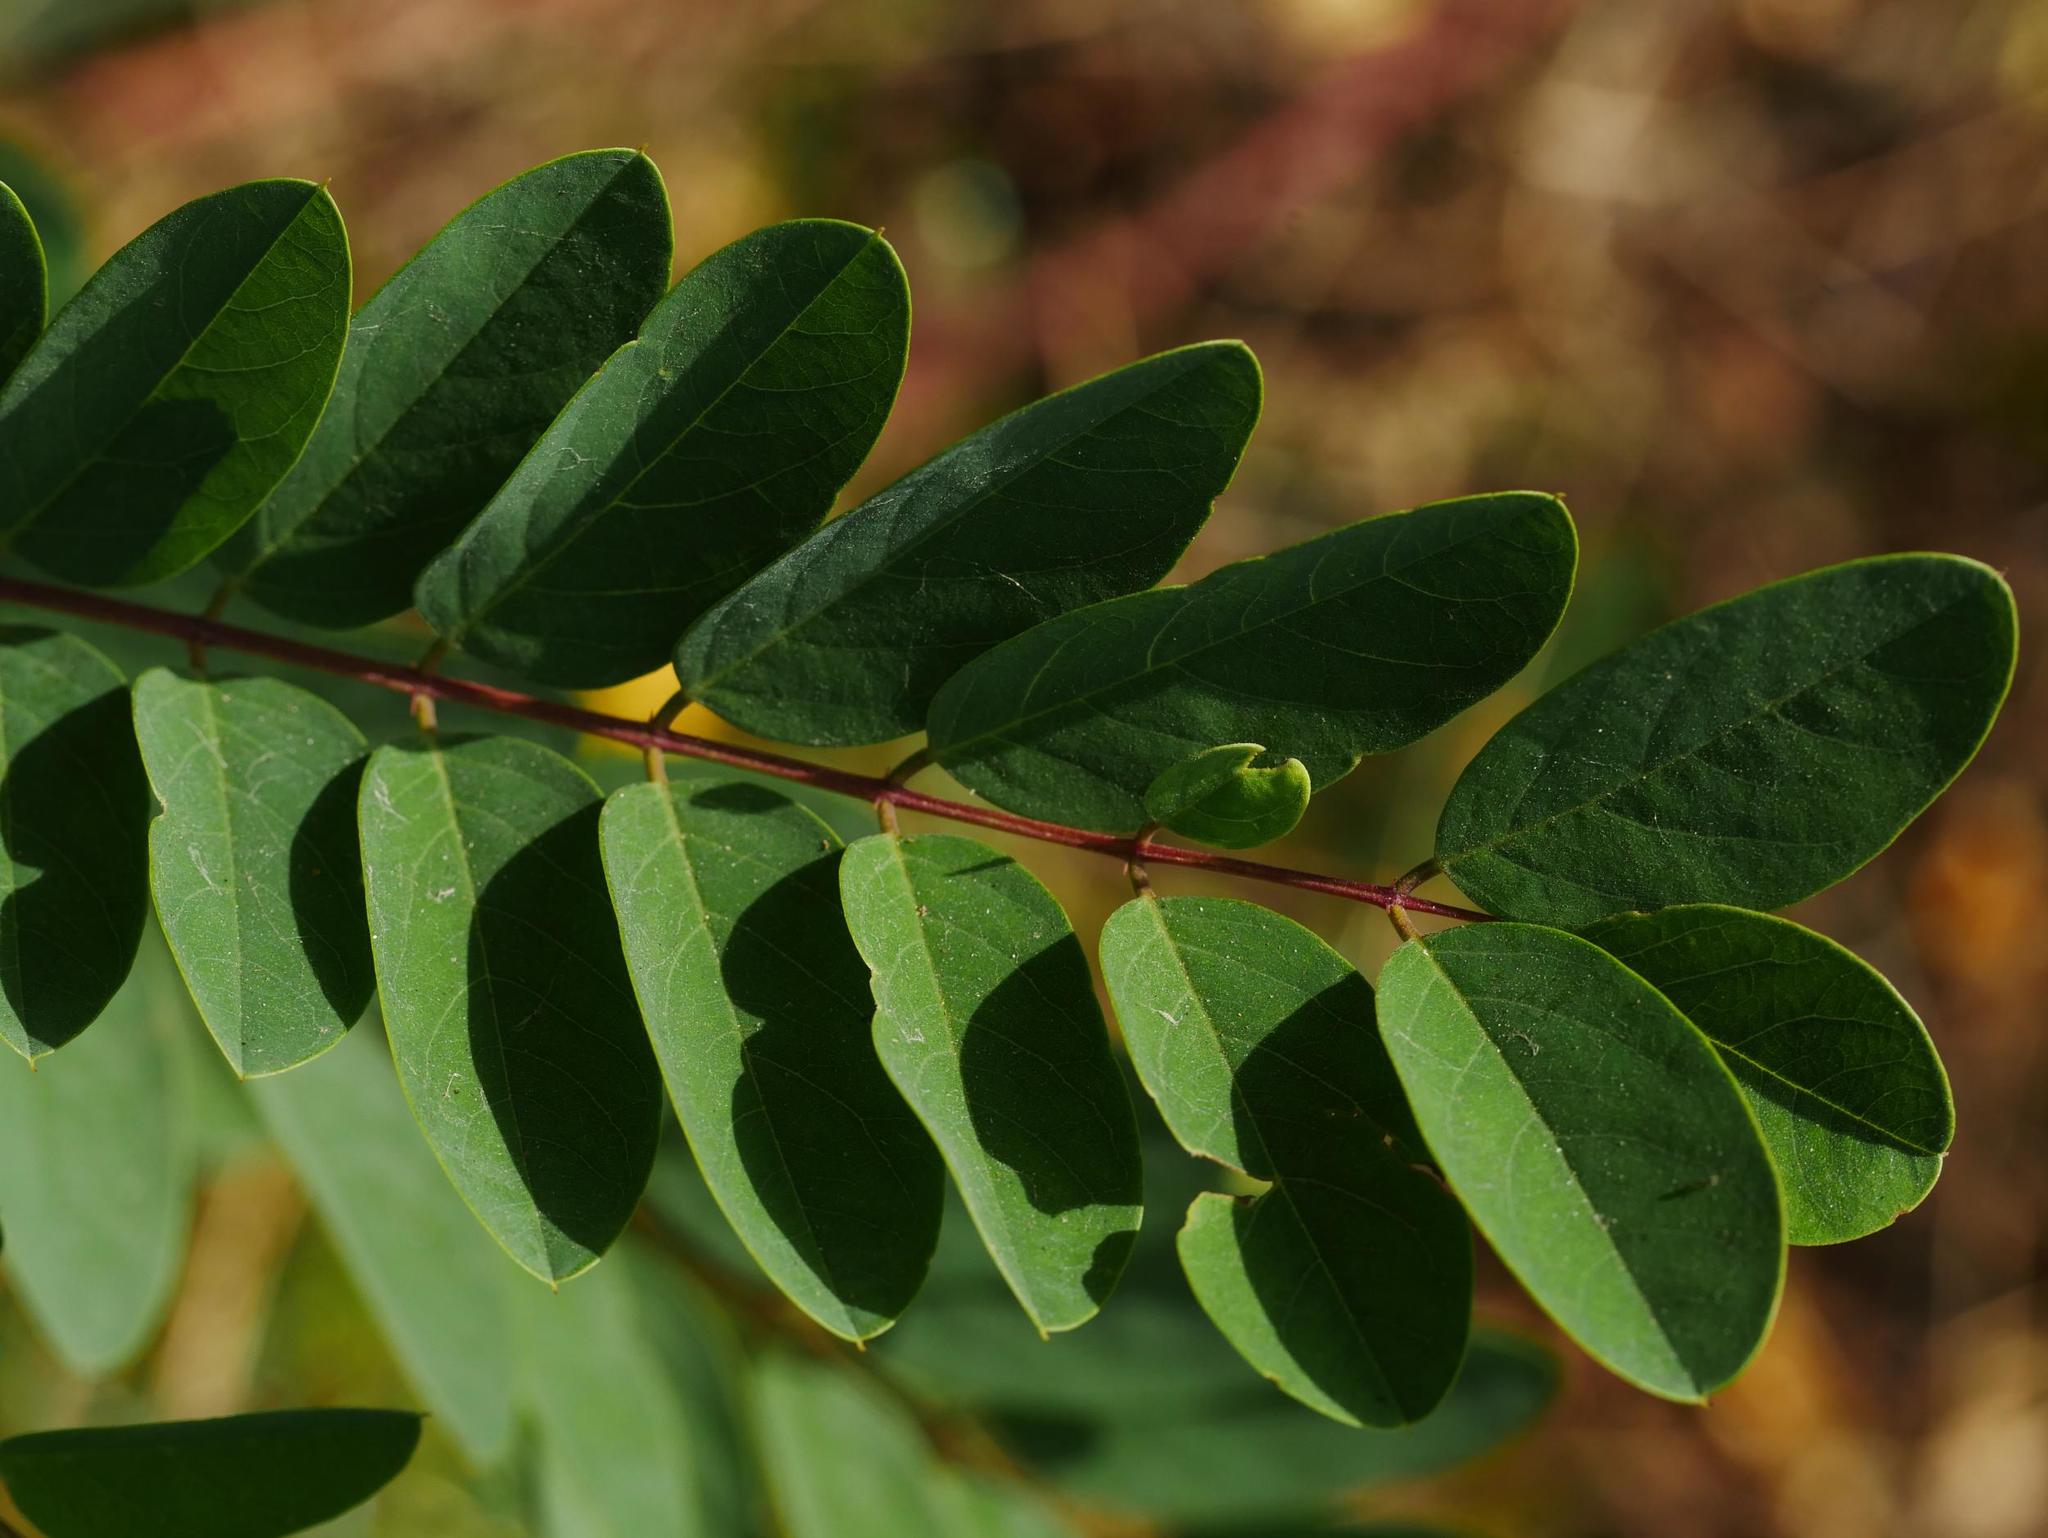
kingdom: Plantae
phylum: Tracheophyta
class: Magnoliopsida
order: Fabales
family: Fabaceae
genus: Robinia
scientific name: Robinia pseudoacacia
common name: Black locust
